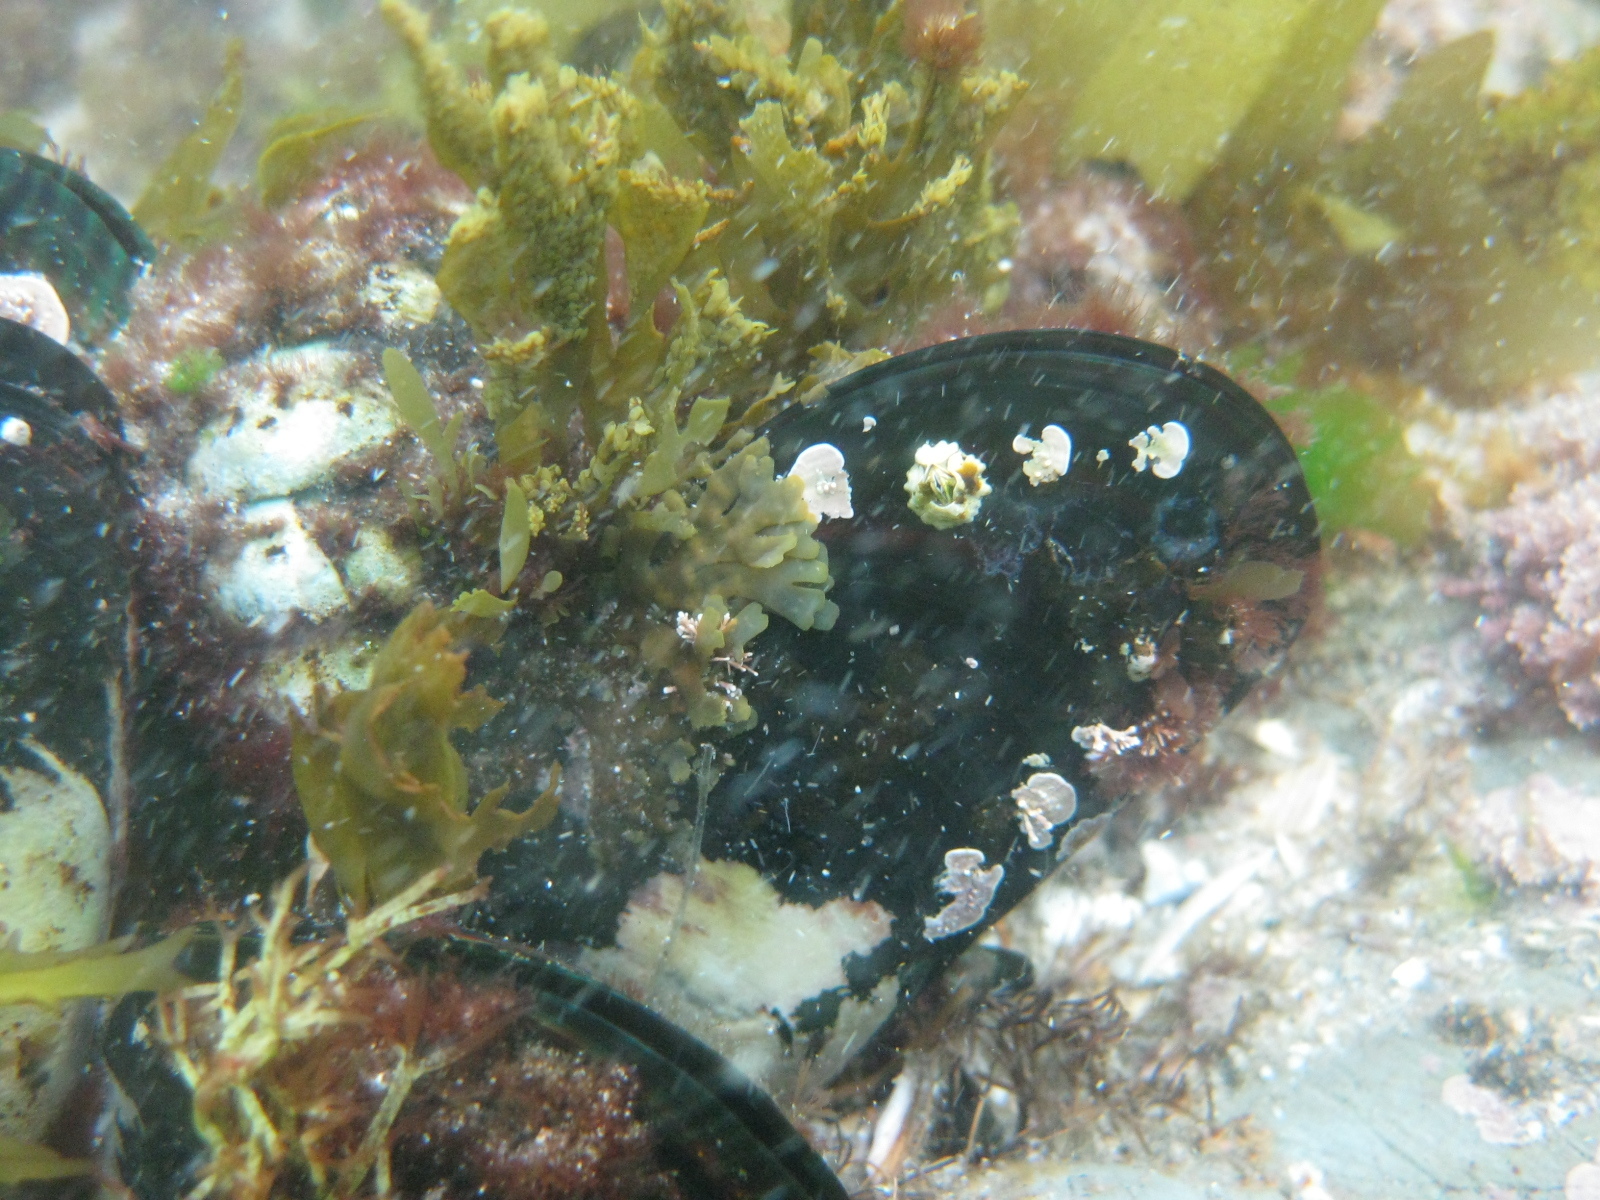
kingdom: Animalia
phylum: Mollusca
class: Bivalvia
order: Mytilida
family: Mytilidae
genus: Perna
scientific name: Perna canaliculus
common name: New zealand greenshelltm
